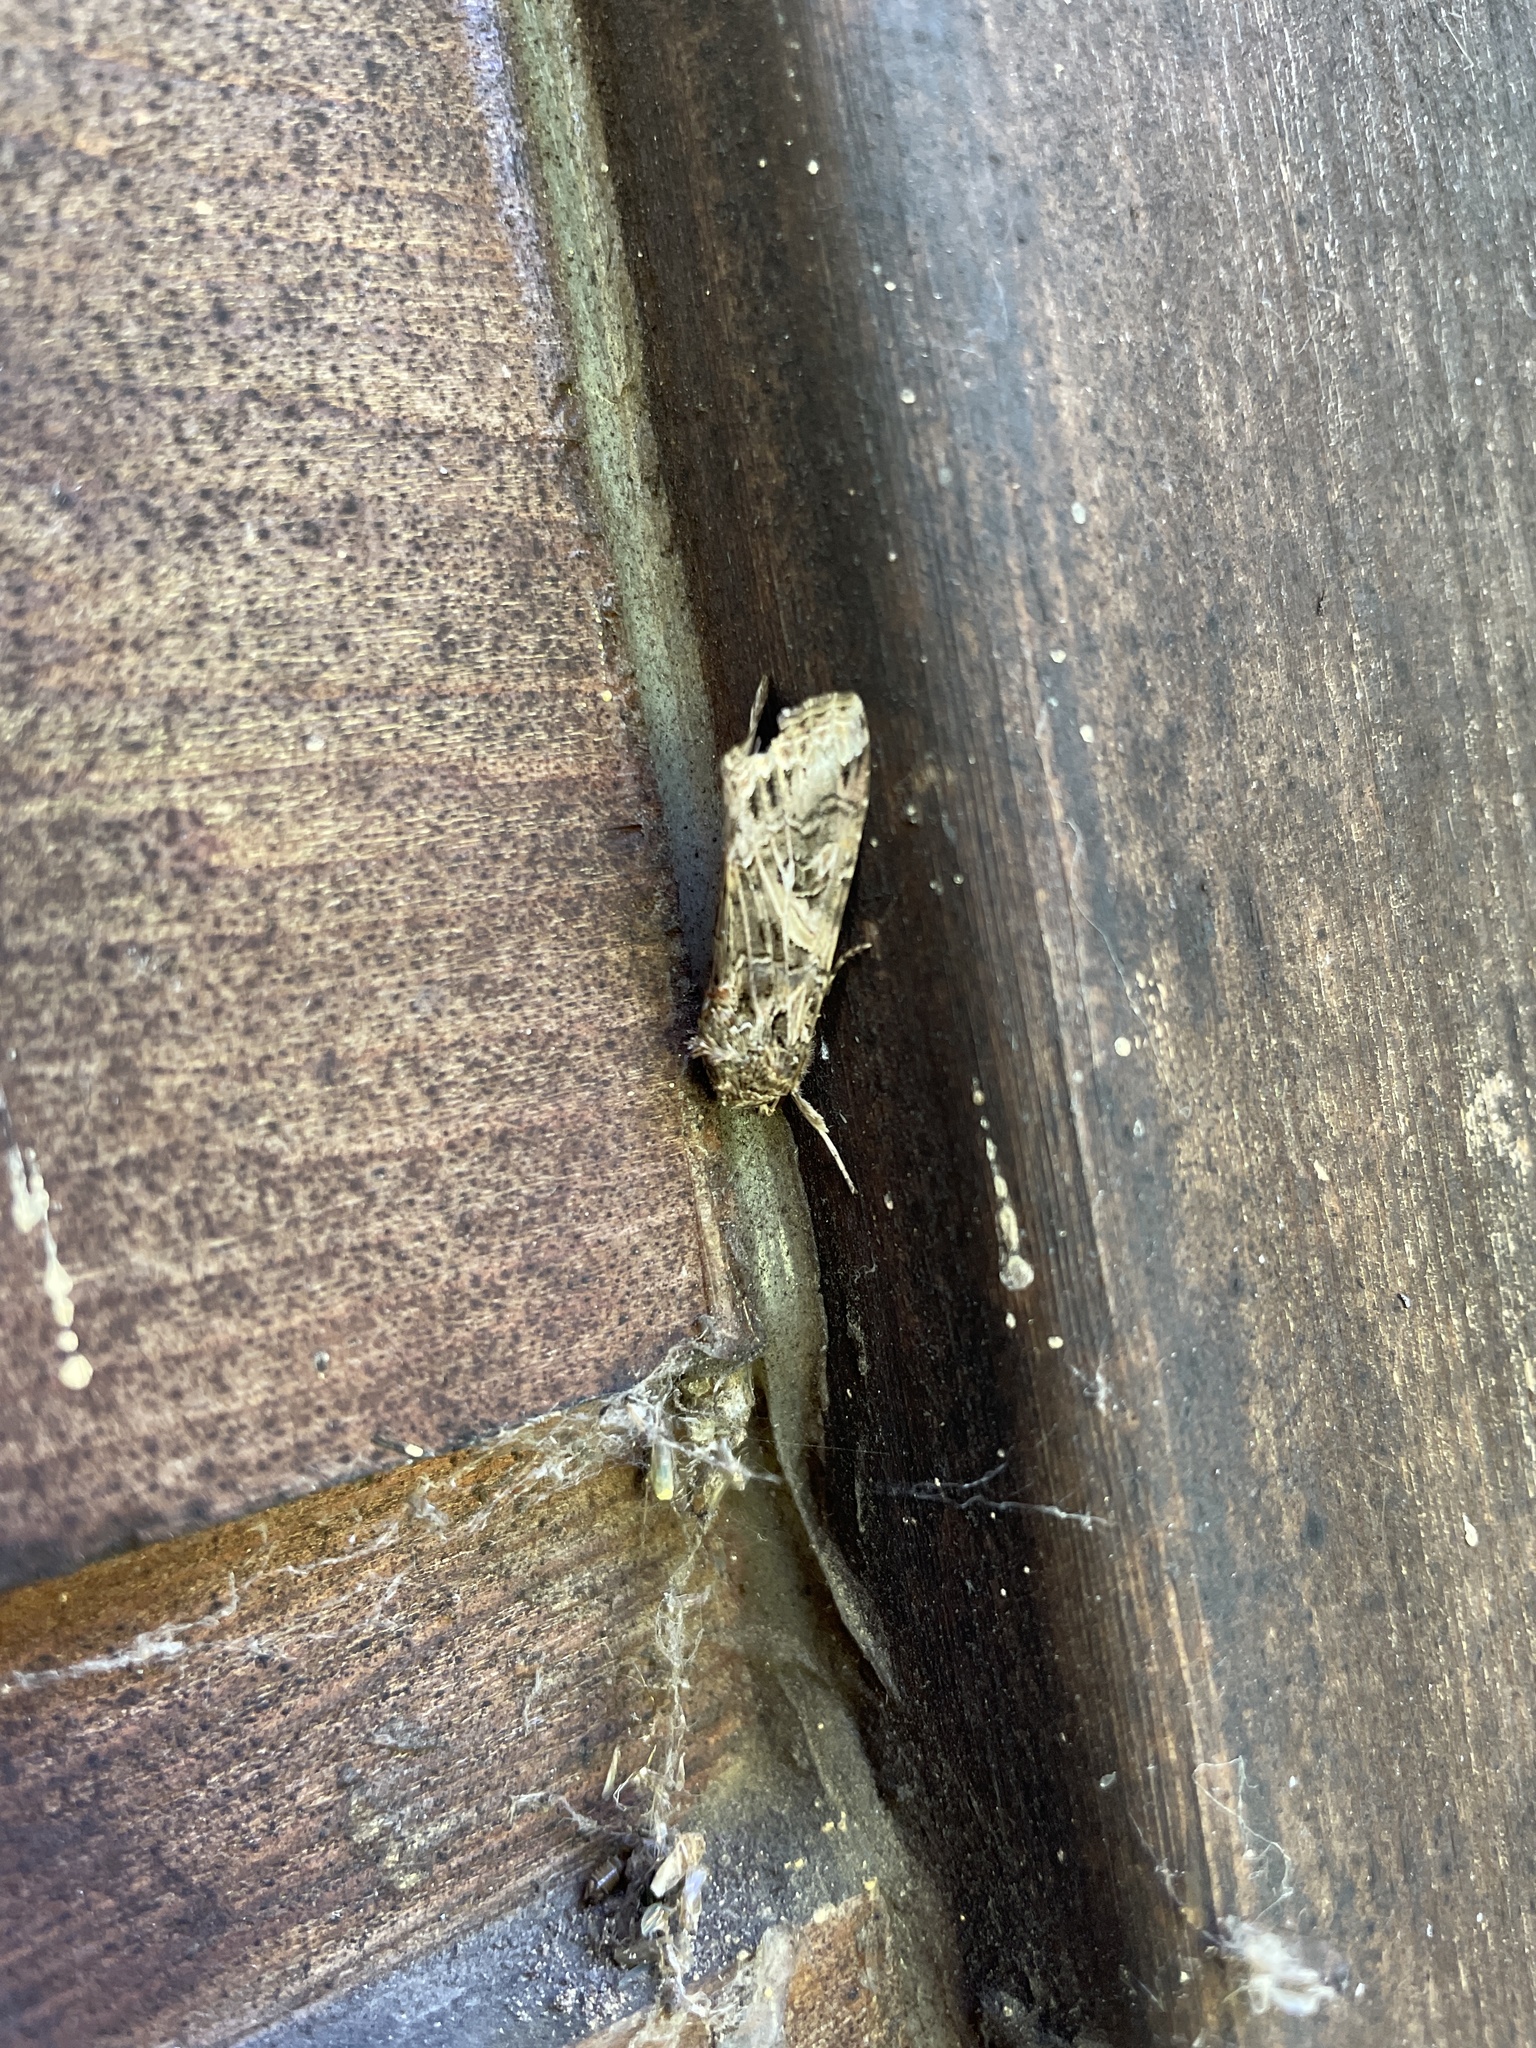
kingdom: Animalia
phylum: Arthropoda
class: Insecta
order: Lepidoptera
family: Noctuidae
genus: Spodoptera
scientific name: Spodoptera ornithogalli
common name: Yellow-striped armyworm
